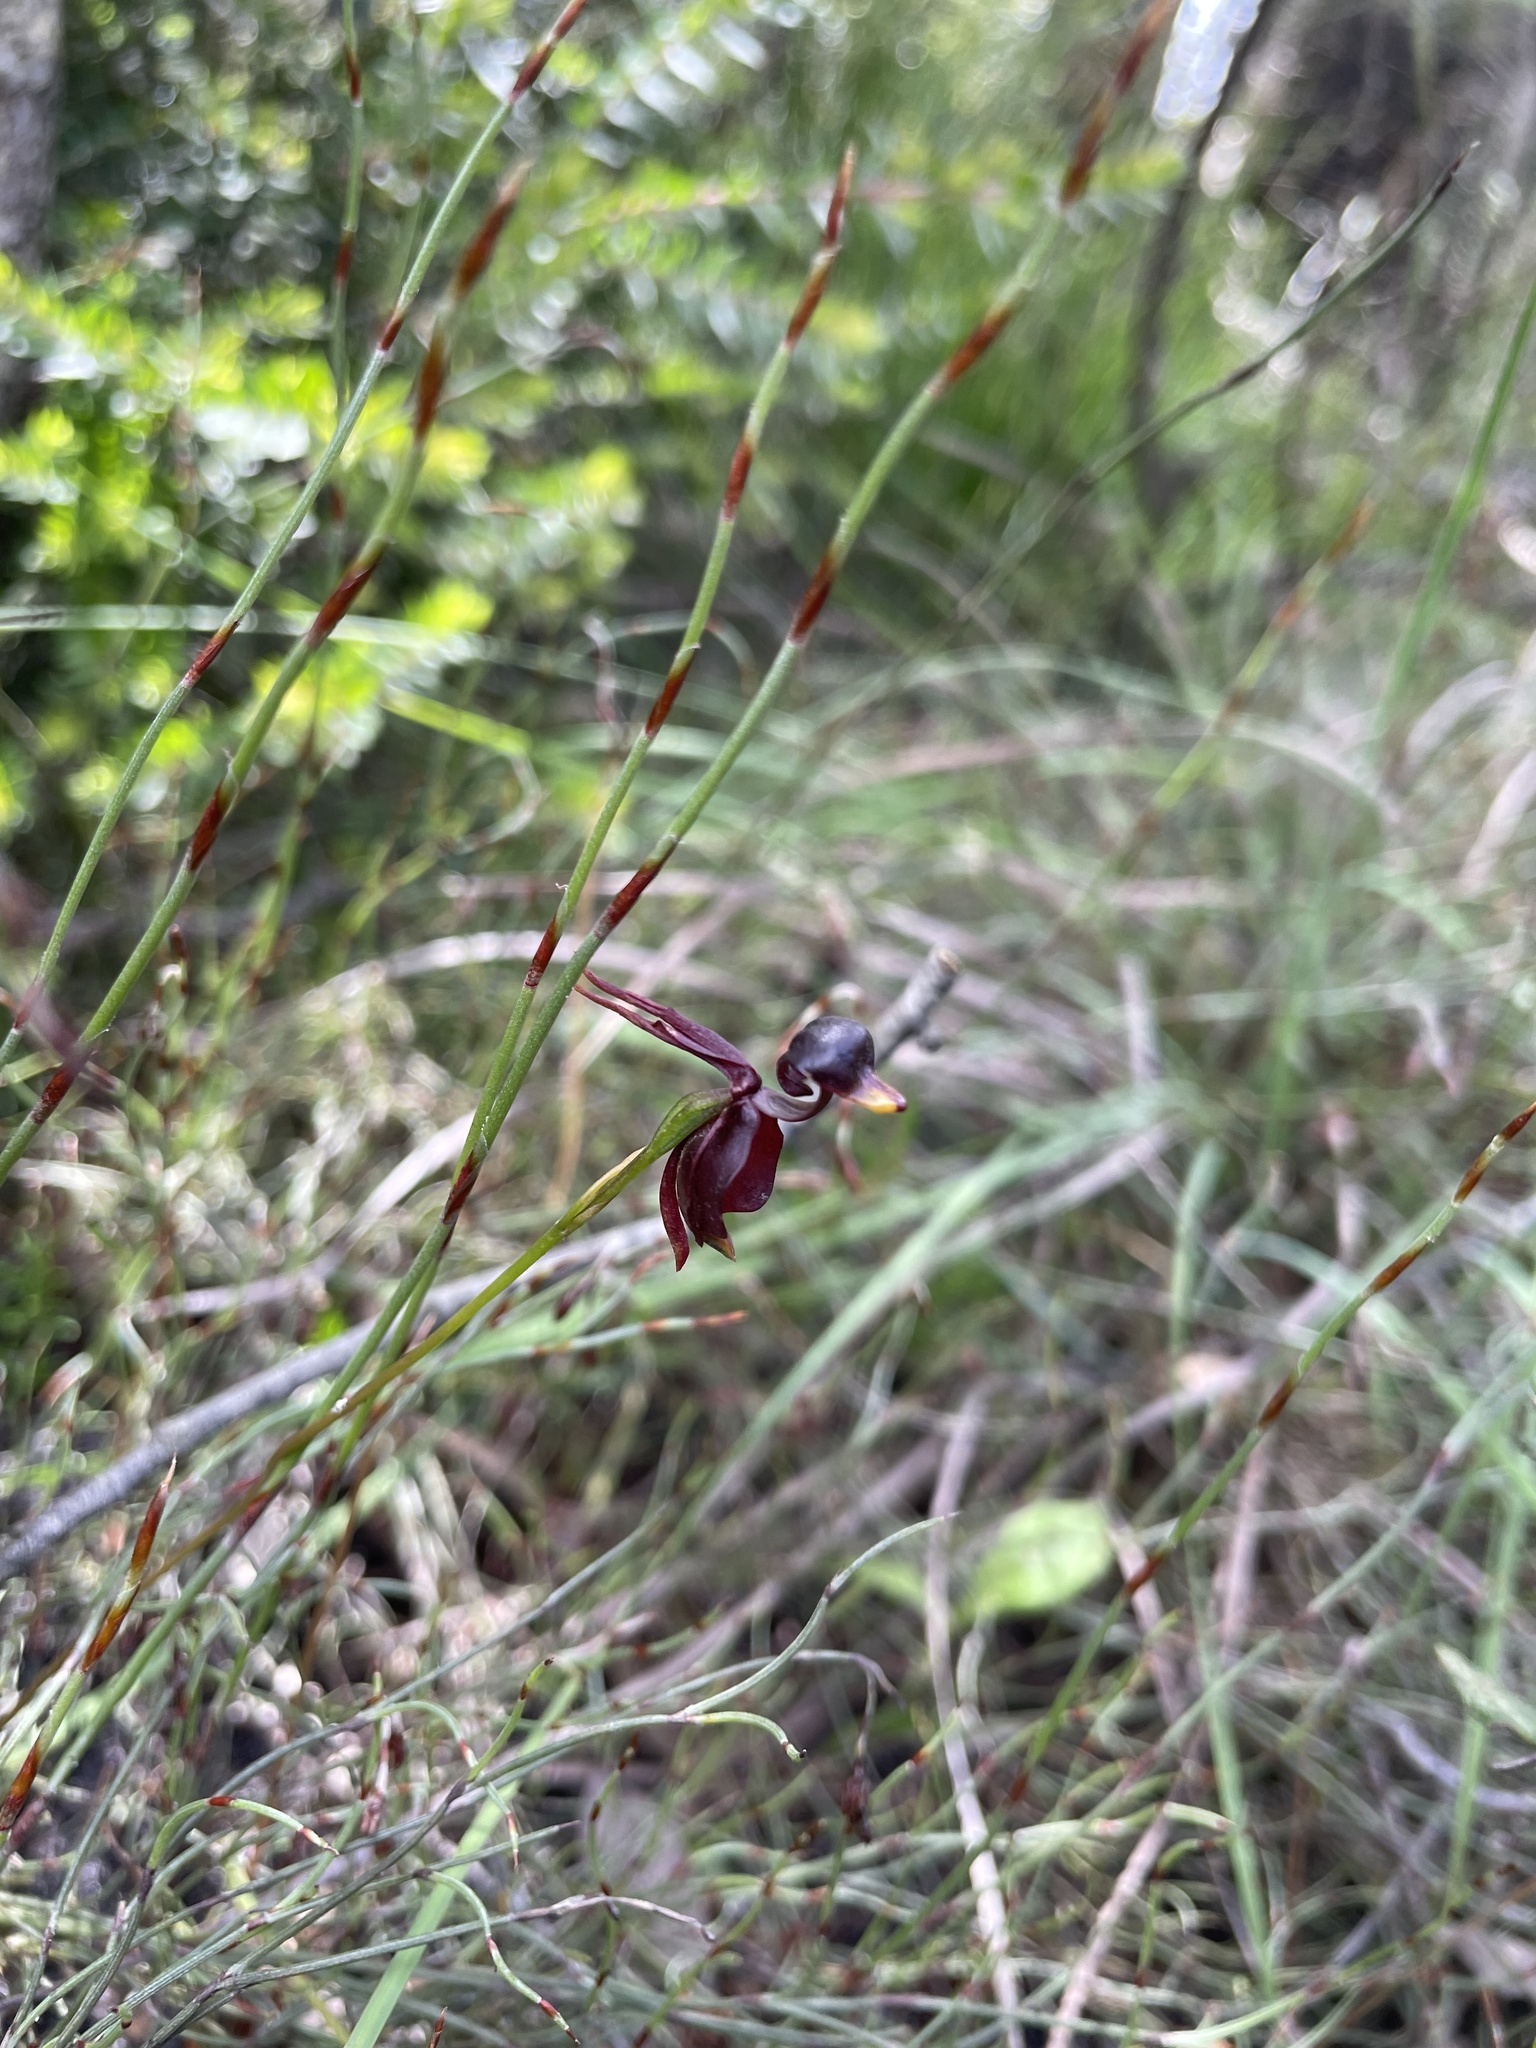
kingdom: Plantae
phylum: Tracheophyta
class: Liliopsida
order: Asparagales
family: Orchidaceae
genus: Caleana
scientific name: Caleana major
